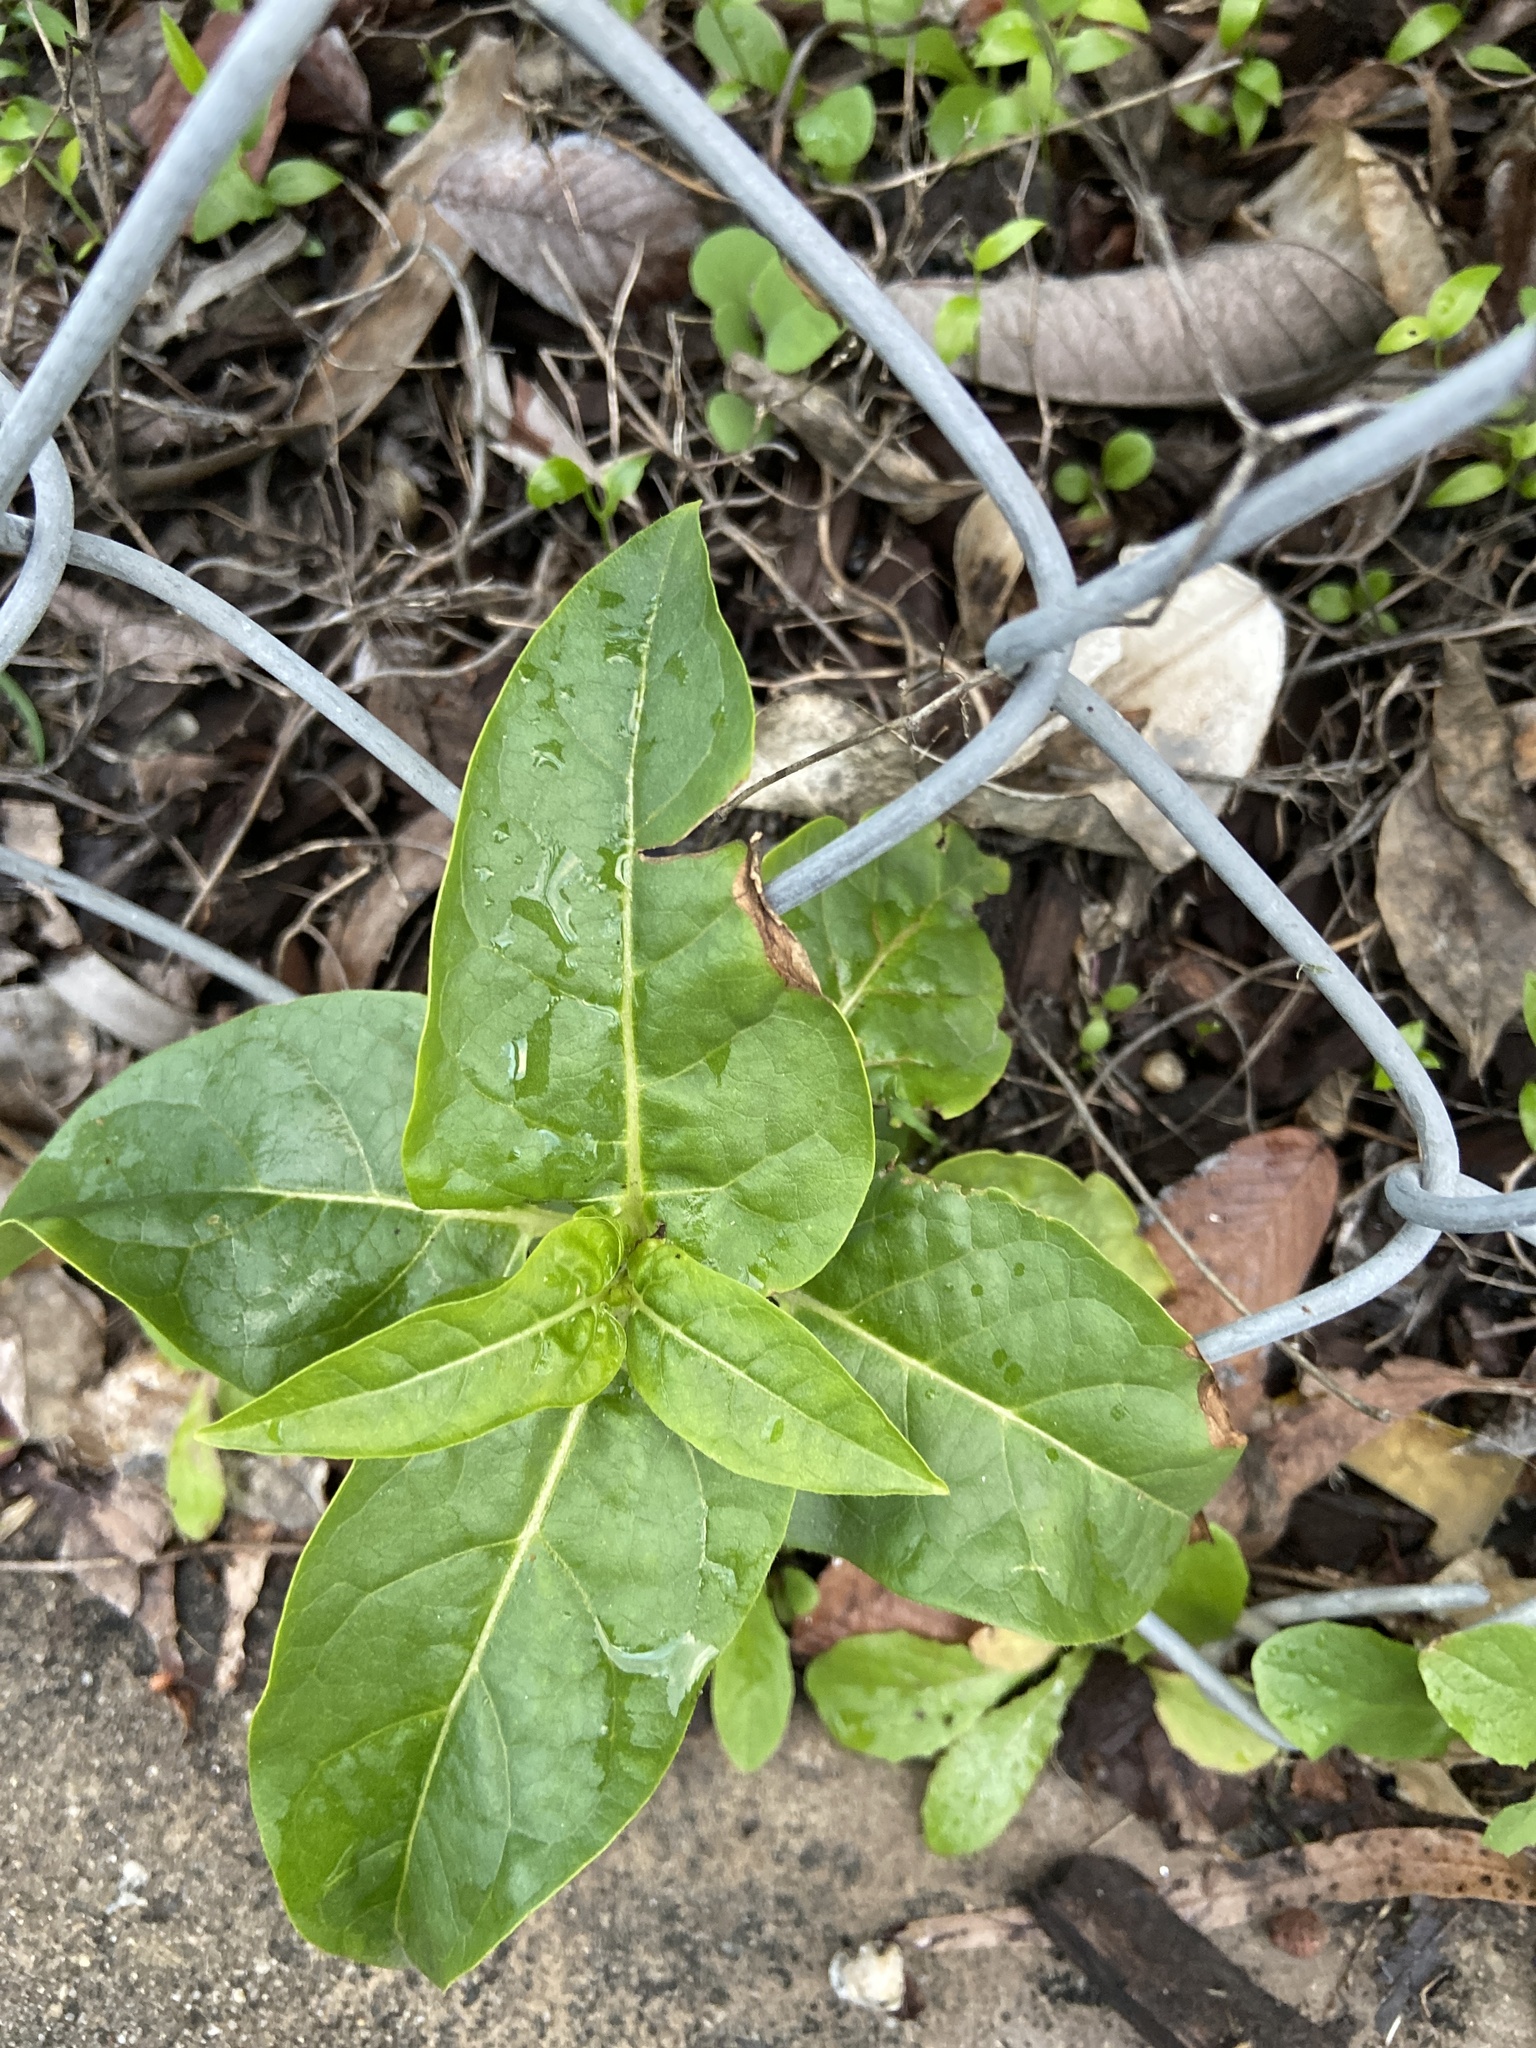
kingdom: Plantae
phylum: Tracheophyta
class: Magnoliopsida
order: Caryophyllales
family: Nyctaginaceae
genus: Mirabilis
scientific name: Mirabilis jalapa
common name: Marvel-of-peru
